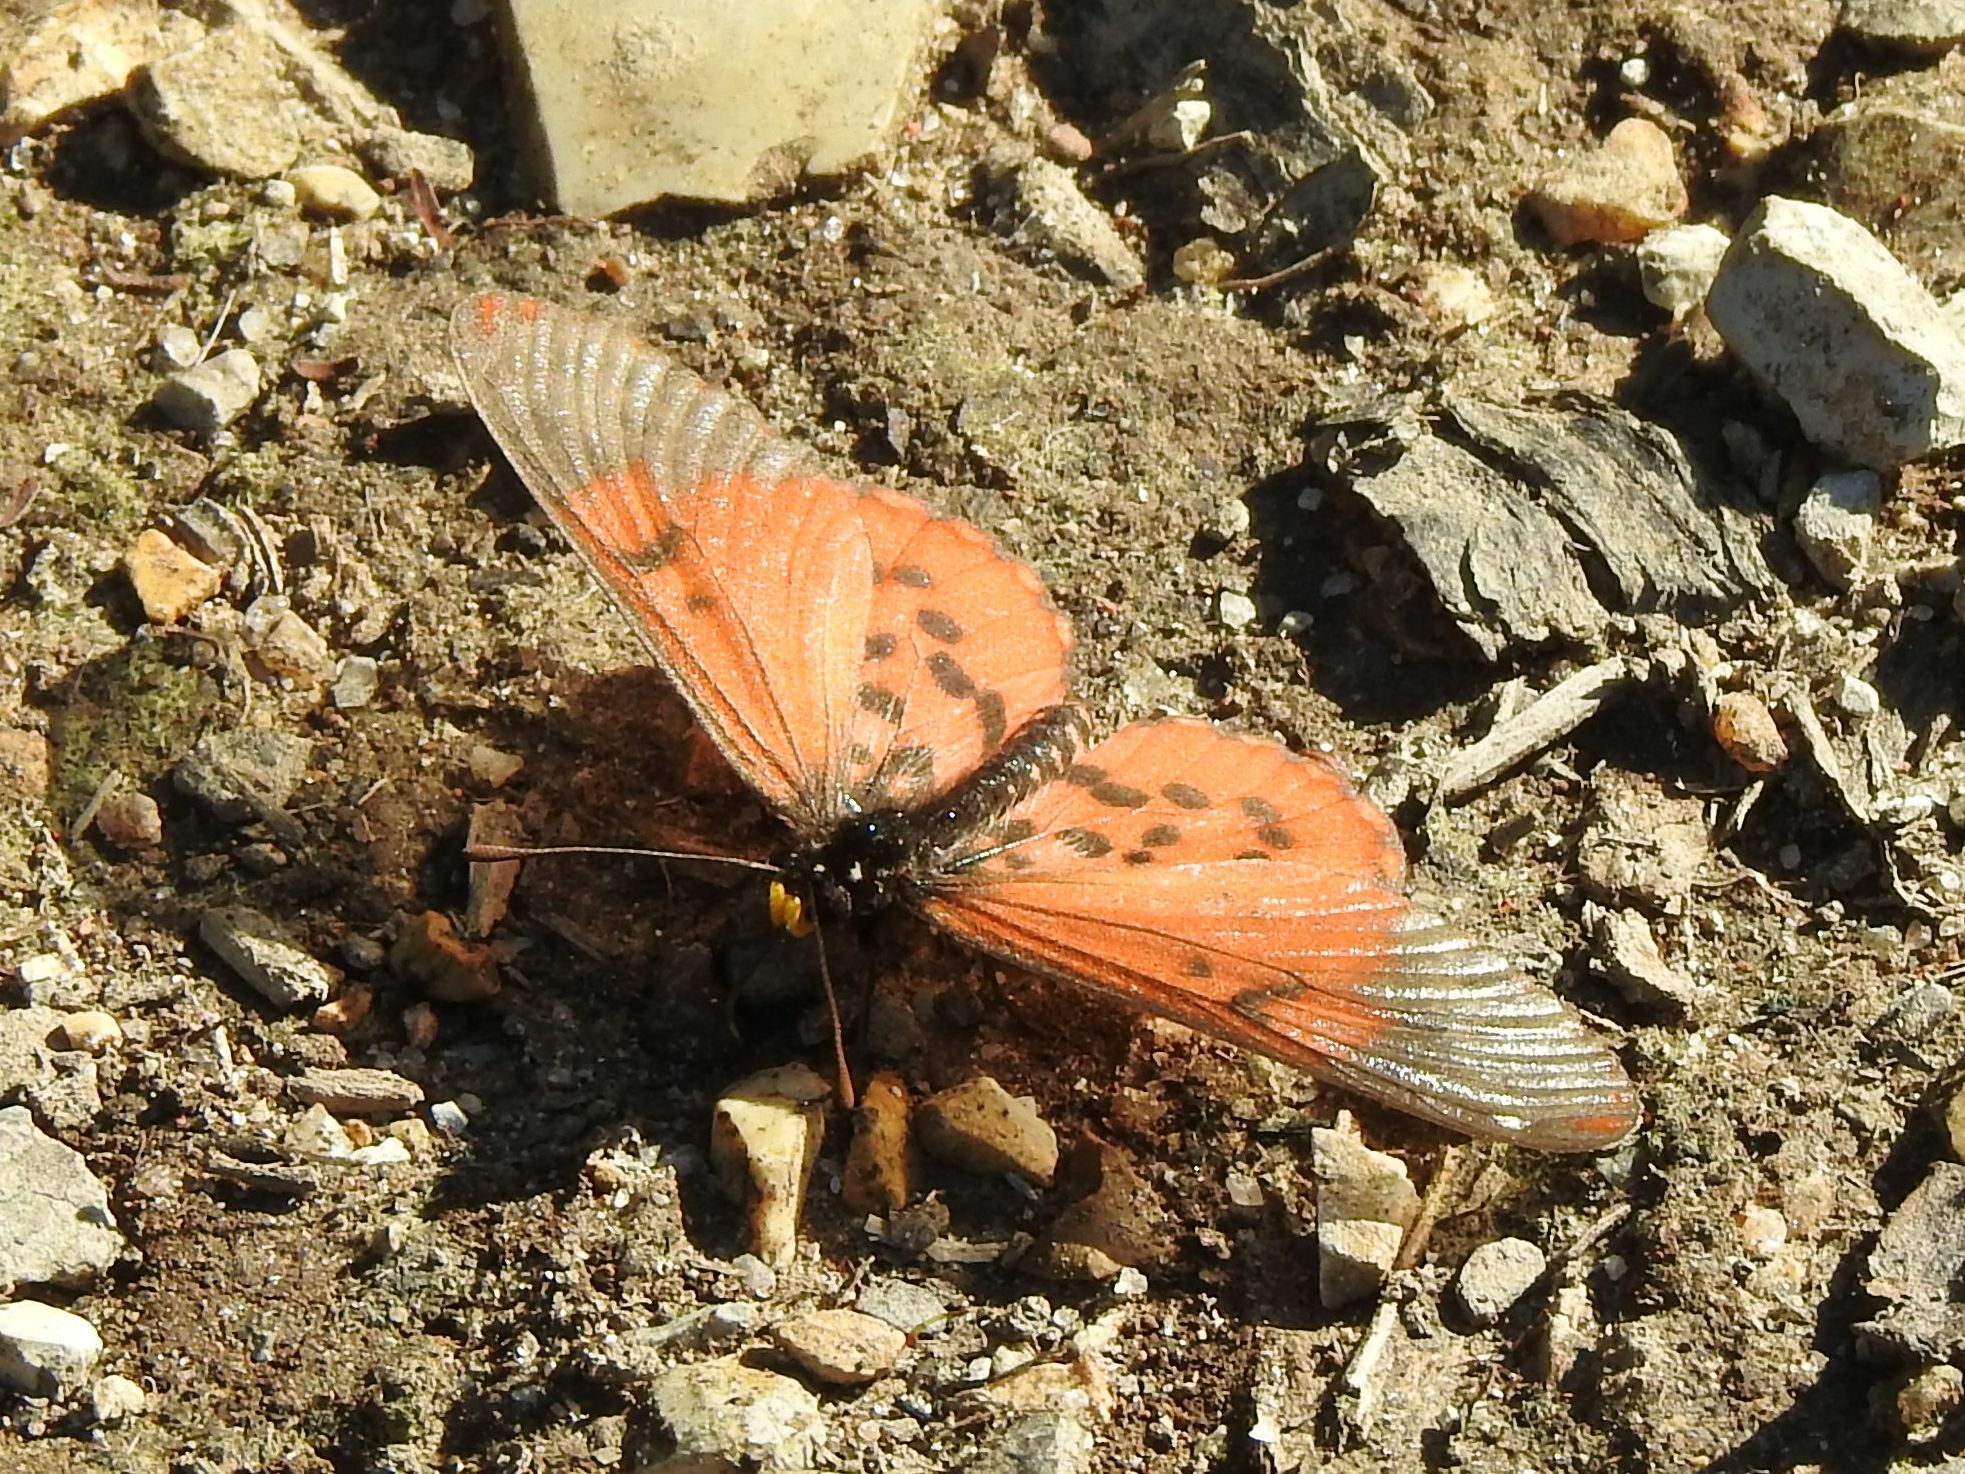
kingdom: Animalia
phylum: Arthropoda
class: Insecta
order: Lepidoptera
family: Nymphalidae
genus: Acraea
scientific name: Acraea horta
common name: Garden acraea
